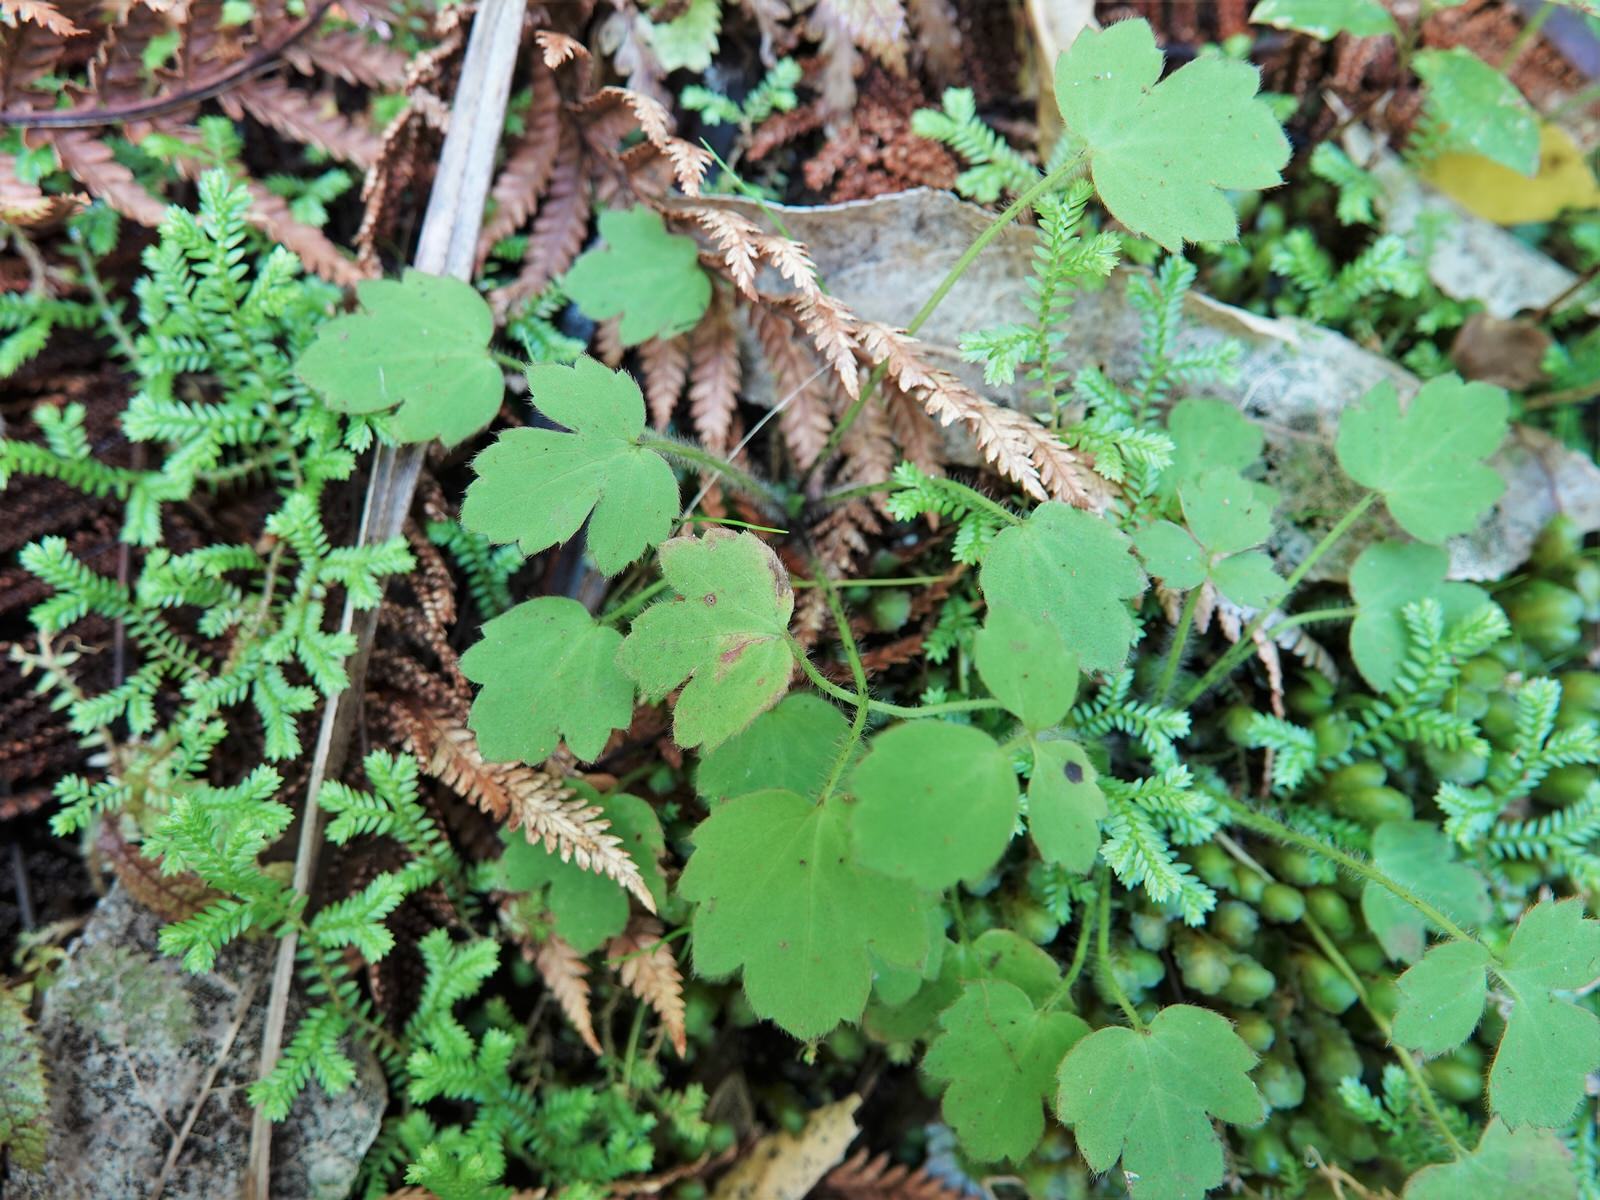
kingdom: Plantae
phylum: Tracheophyta
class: Magnoliopsida
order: Ranunculales
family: Ranunculaceae
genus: Ranunculus
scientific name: Ranunculus reflexus
